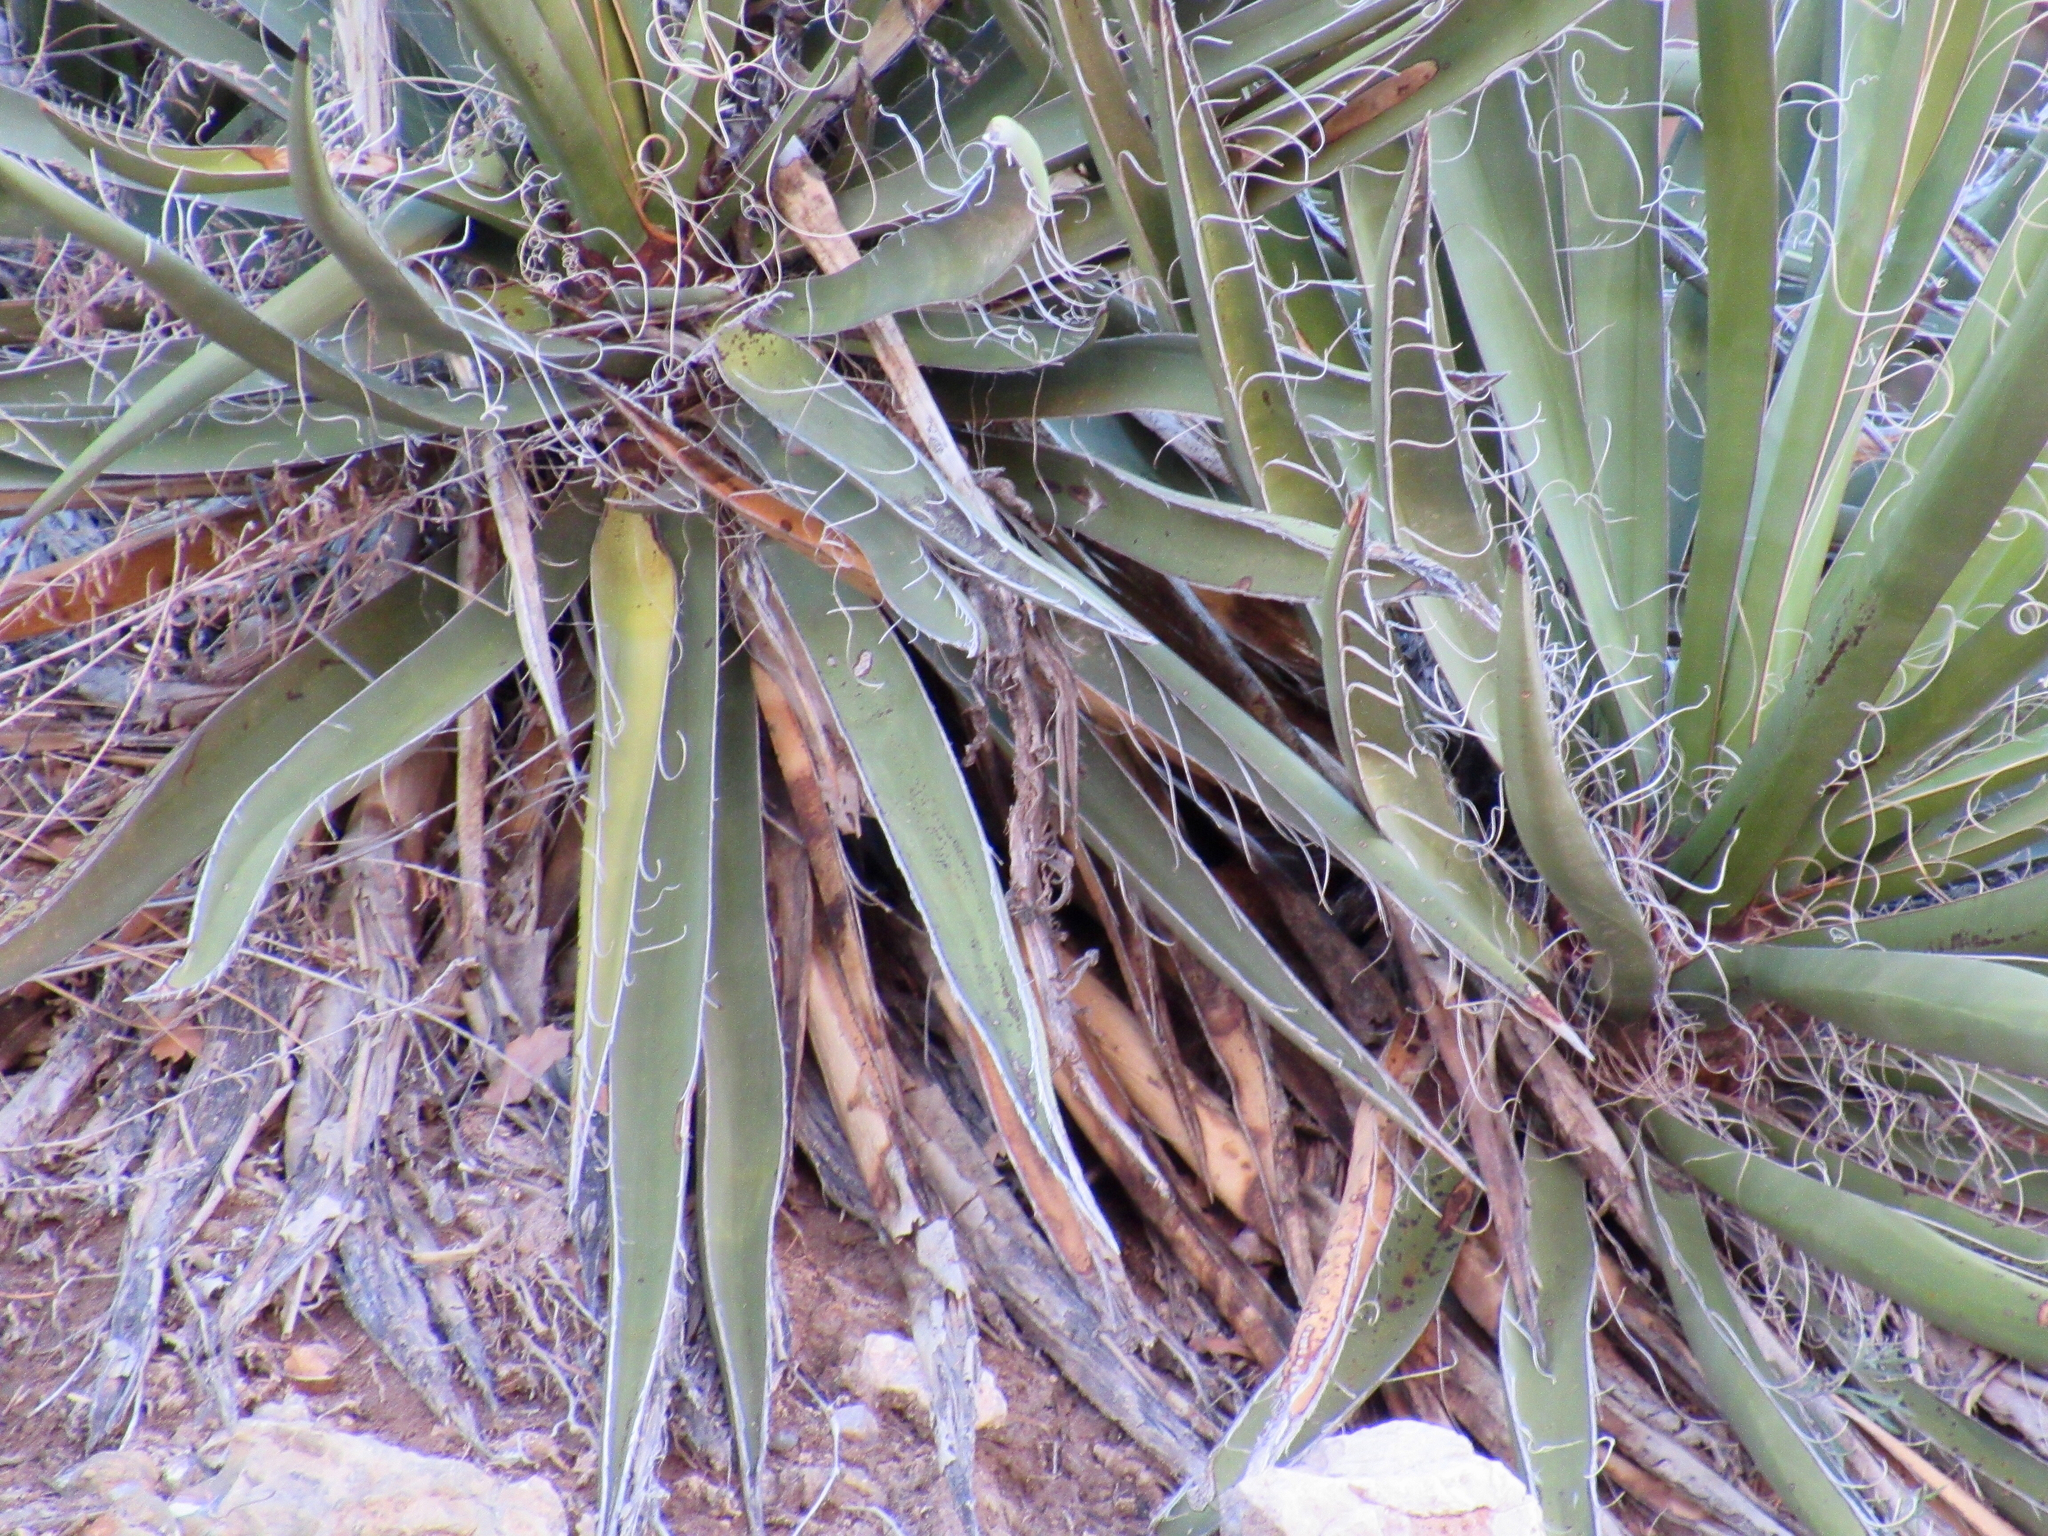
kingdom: Plantae
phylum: Tracheophyta
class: Liliopsida
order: Asparagales
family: Asparagaceae
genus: Yucca
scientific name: Yucca baccata
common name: Banana yucca
